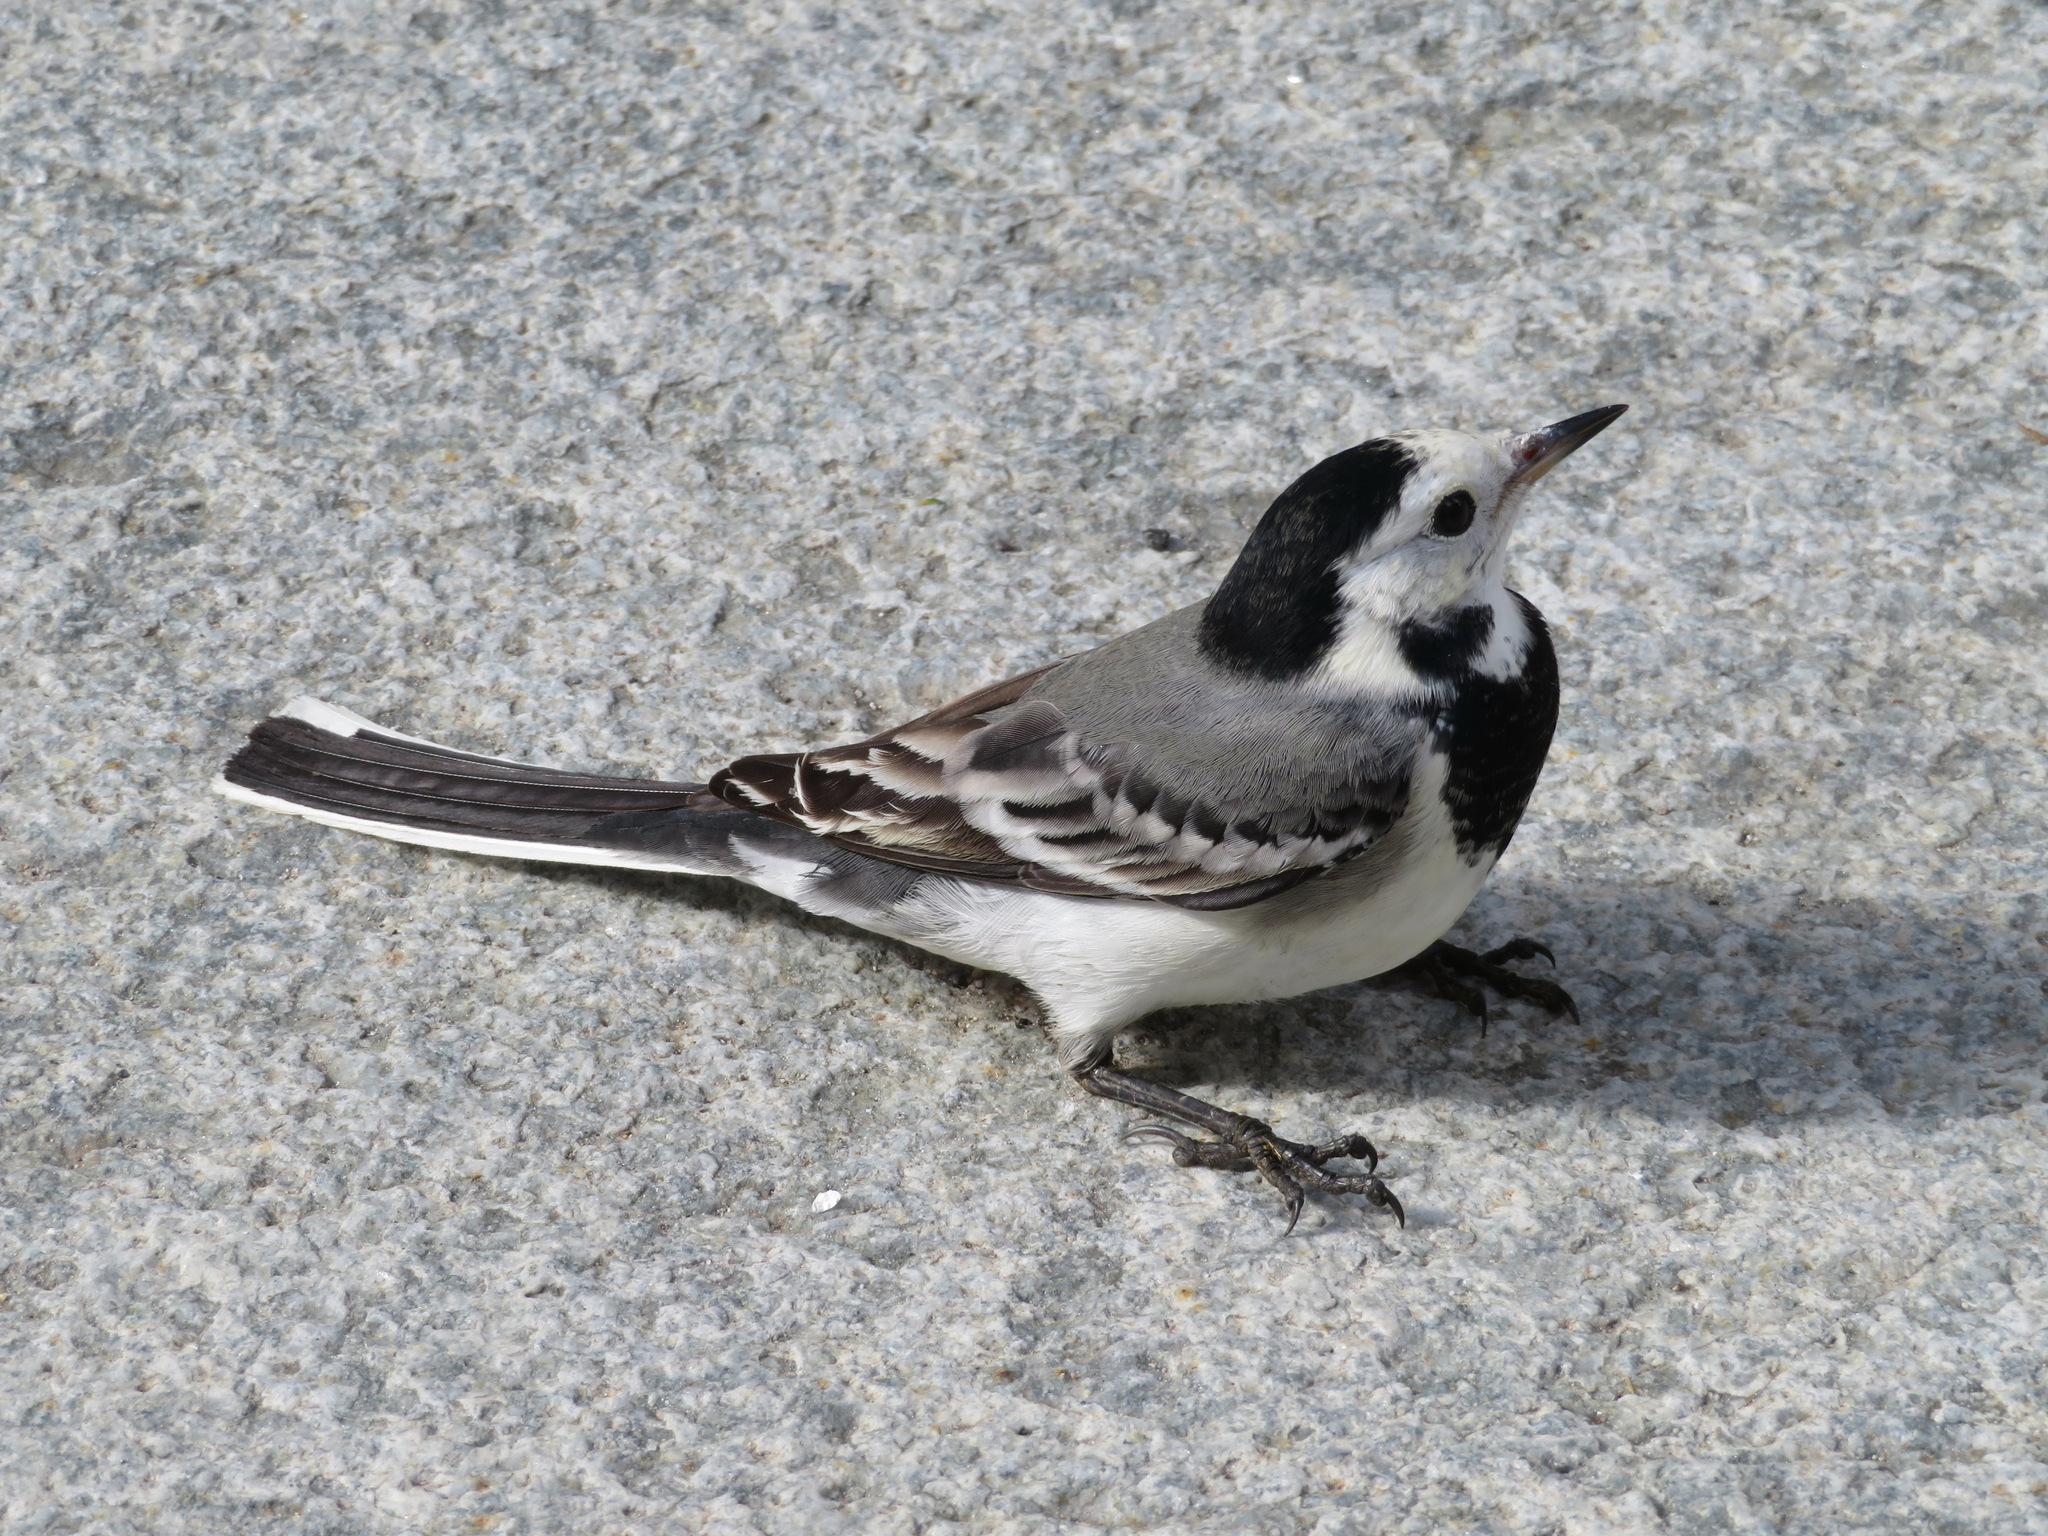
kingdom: Animalia
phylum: Chordata
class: Aves
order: Passeriformes
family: Motacillidae
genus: Motacilla
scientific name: Motacilla alba
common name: White wagtail
